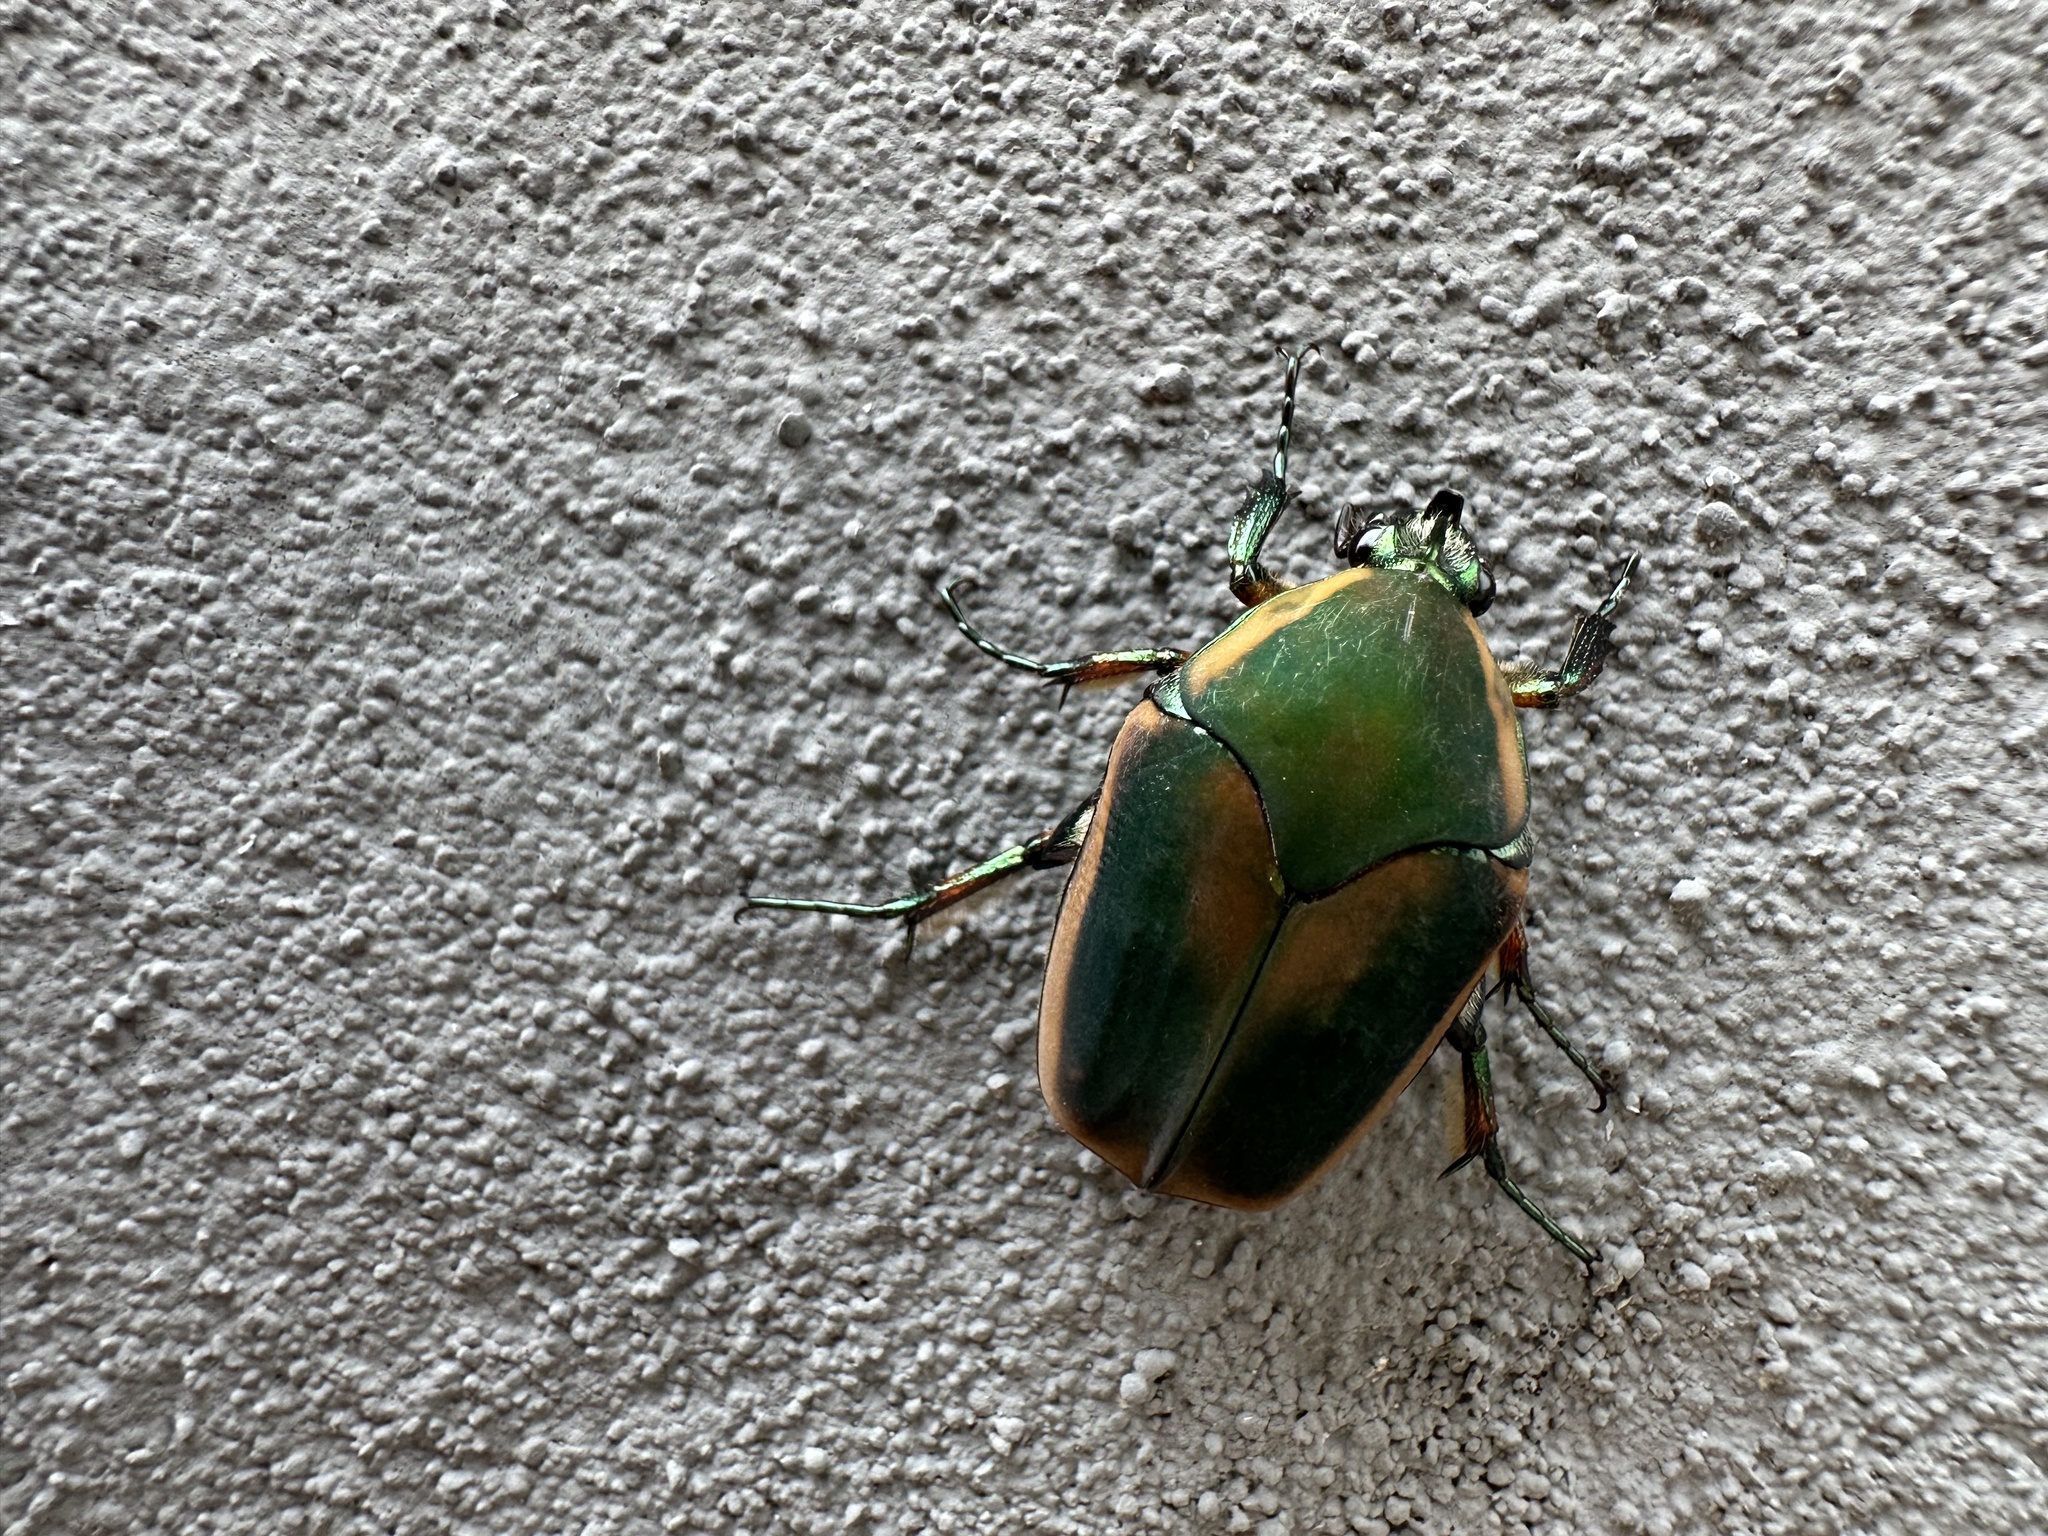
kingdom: Animalia
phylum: Arthropoda
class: Insecta
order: Coleoptera
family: Scarabaeidae
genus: Cotinis
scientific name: Cotinis nitida
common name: Common green june beetle
